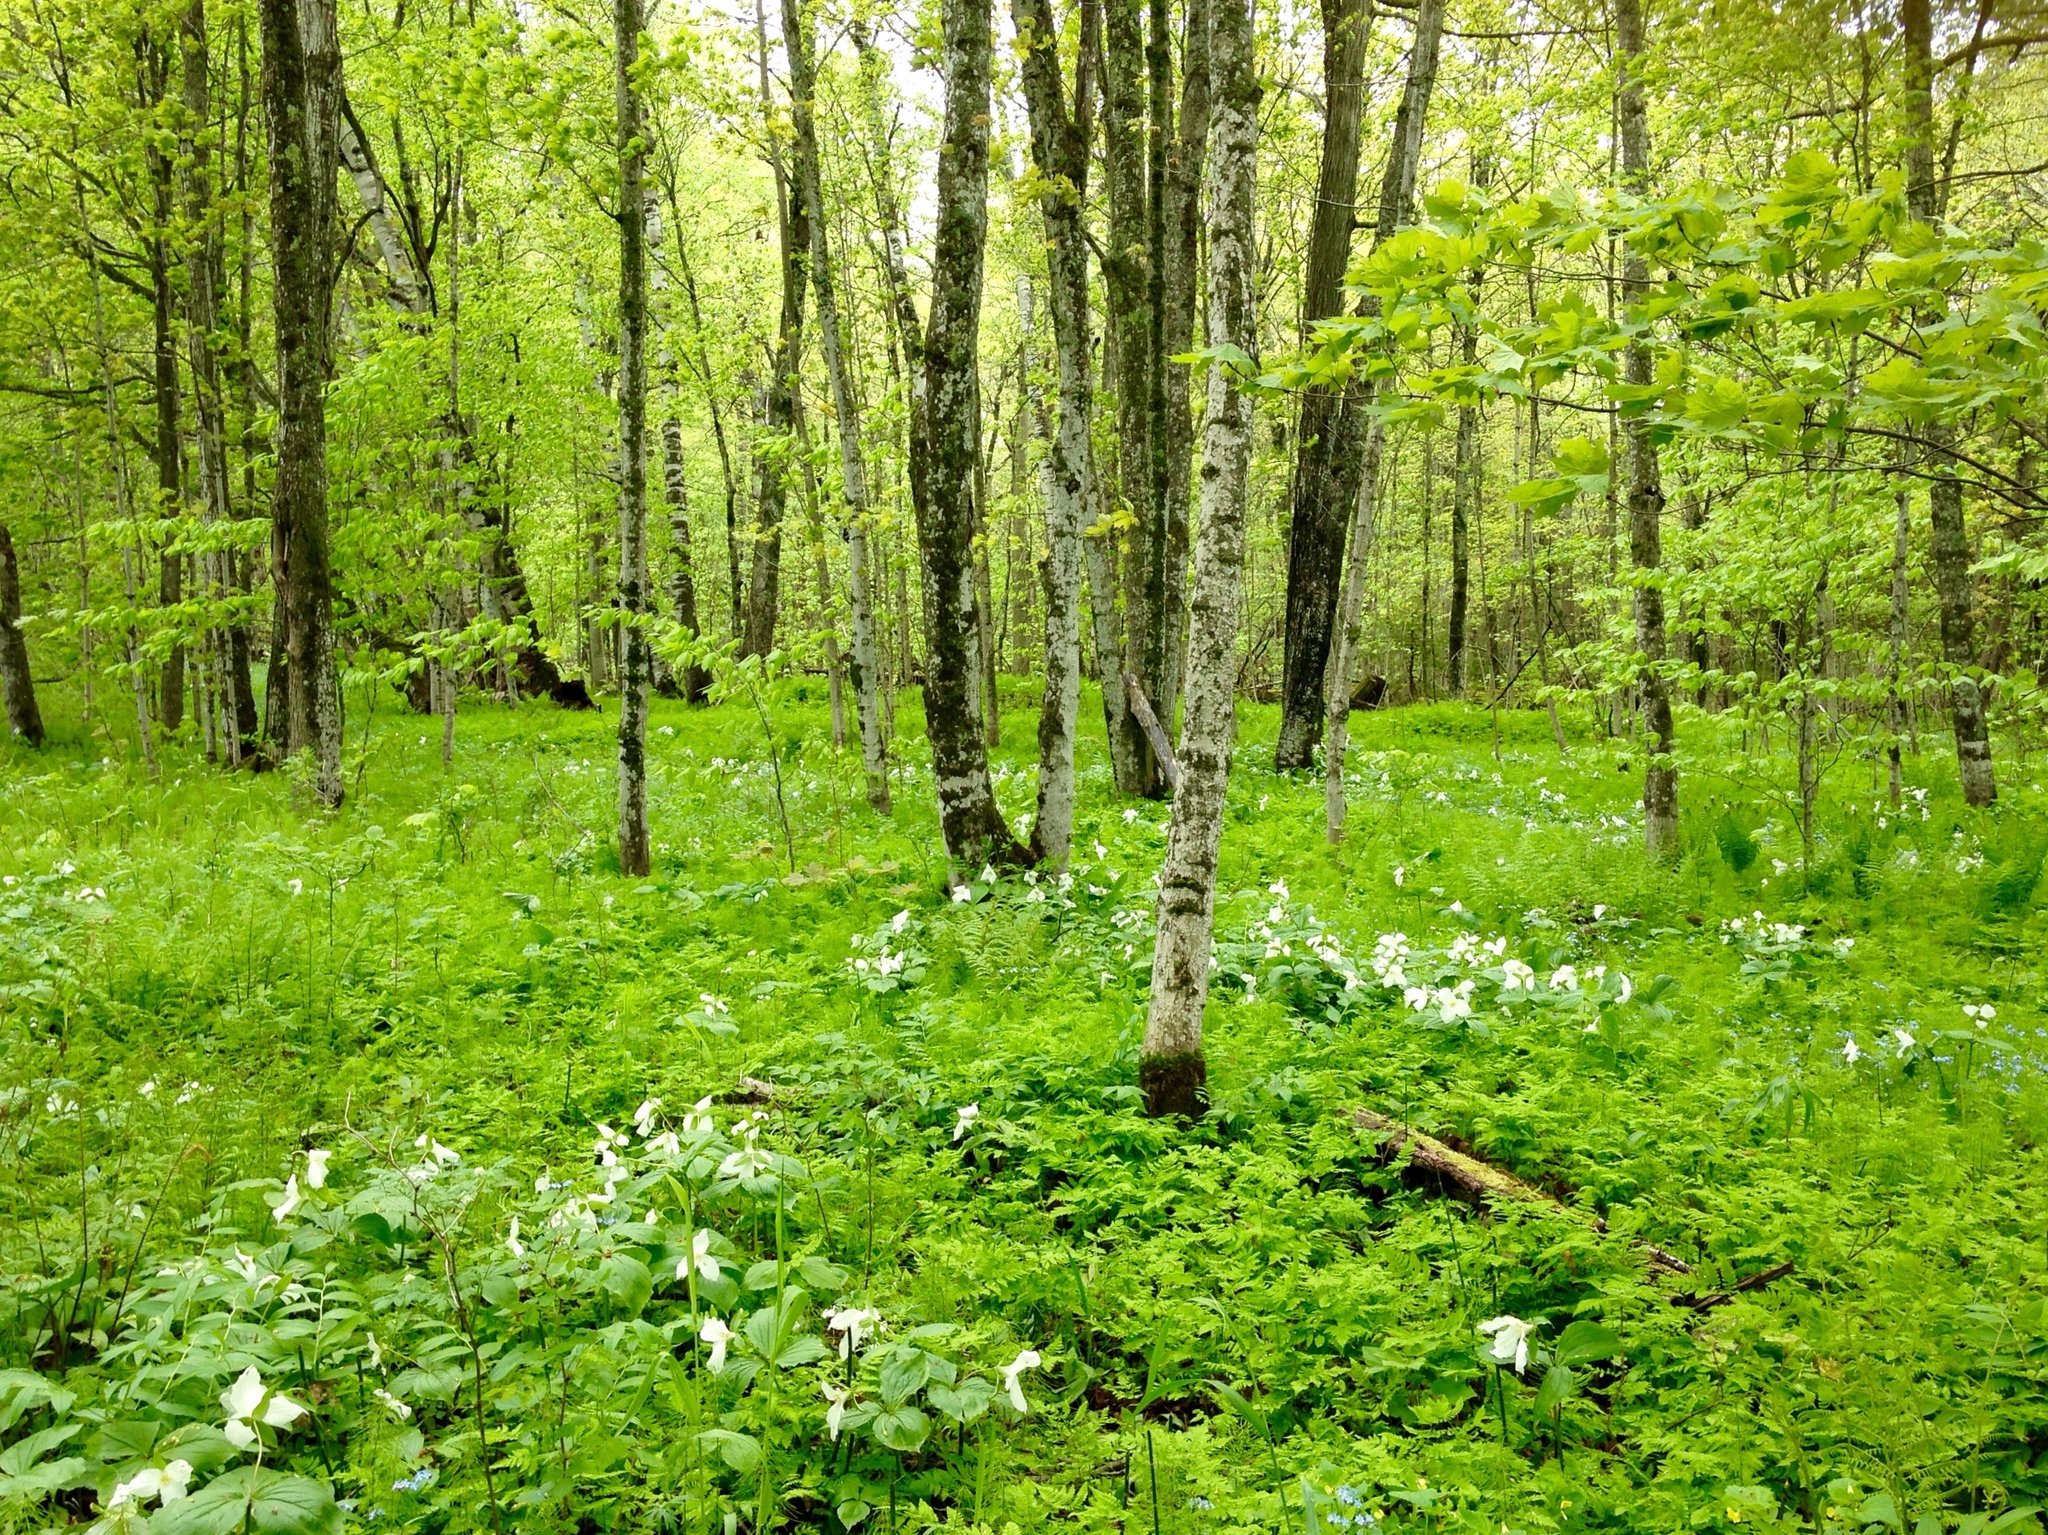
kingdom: Plantae
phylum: Tracheophyta
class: Liliopsida
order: Liliales
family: Melanthiaceae
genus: Trillium
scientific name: Trillium grandiflorum
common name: Great white trillium
